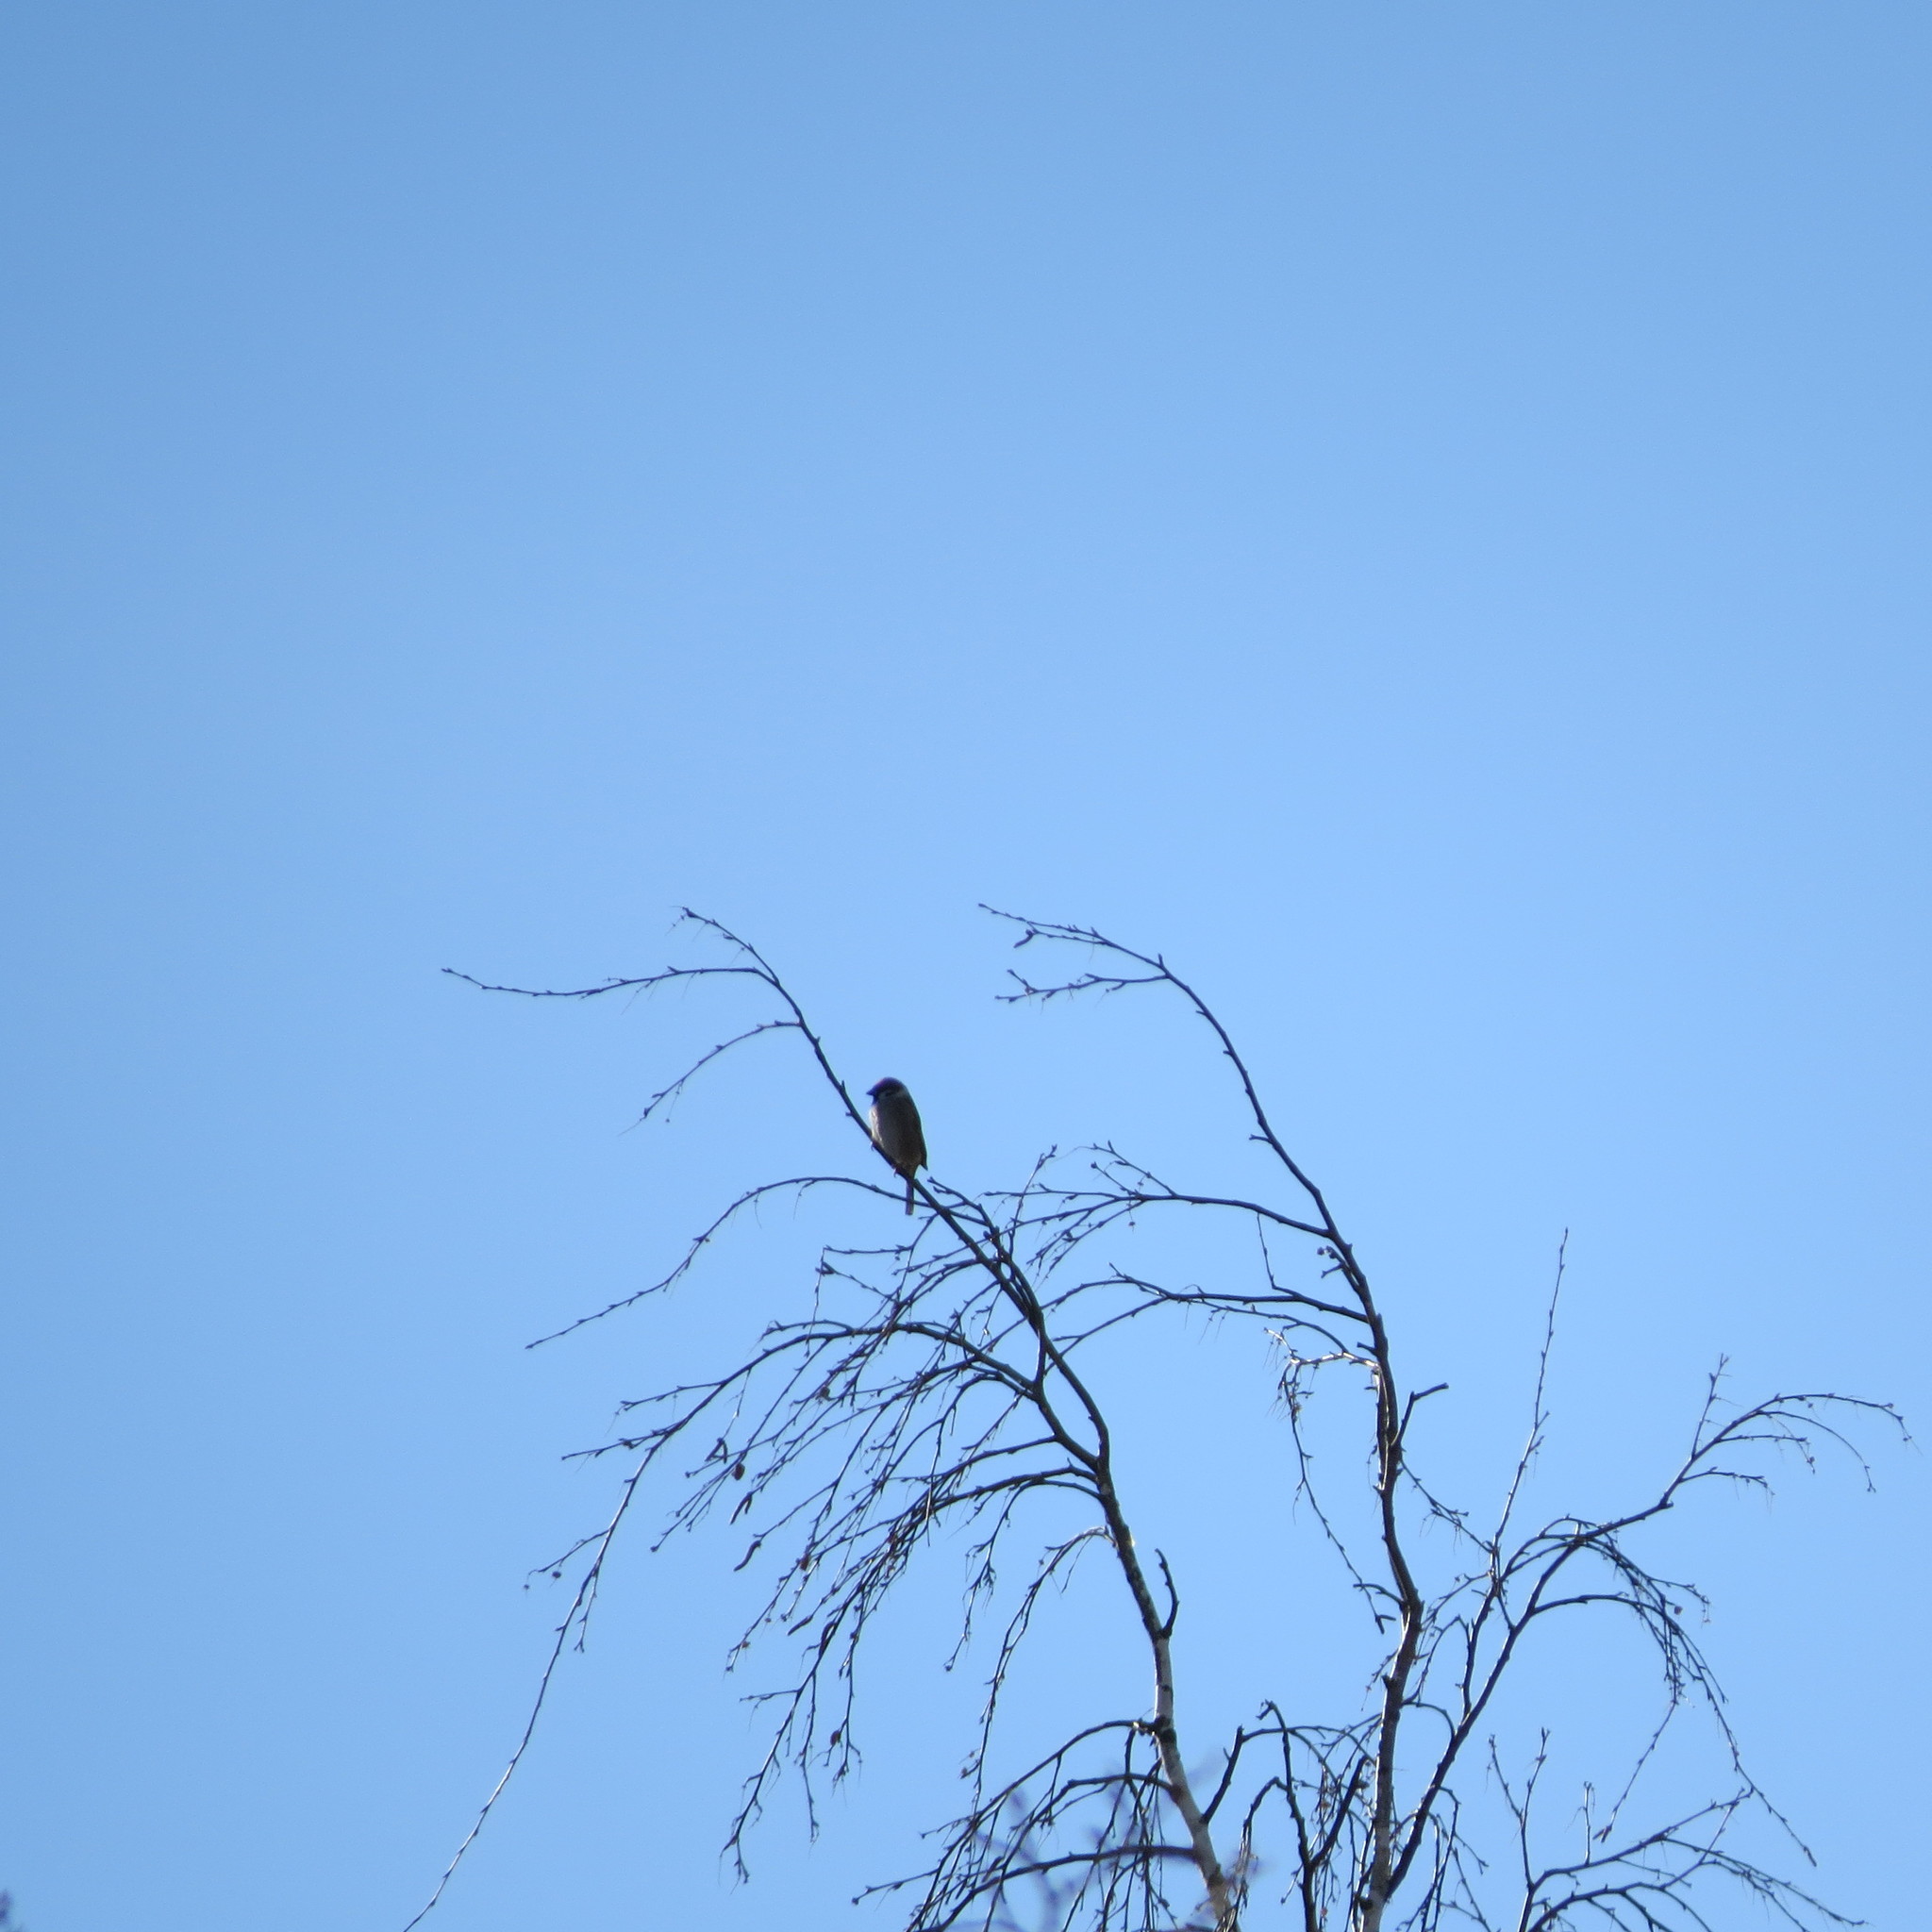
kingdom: Animalia
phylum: Chordata
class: Aves
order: Passeriformes
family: Passeridae
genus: Passer
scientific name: Passer montanus
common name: Eurasian tree sparrow
